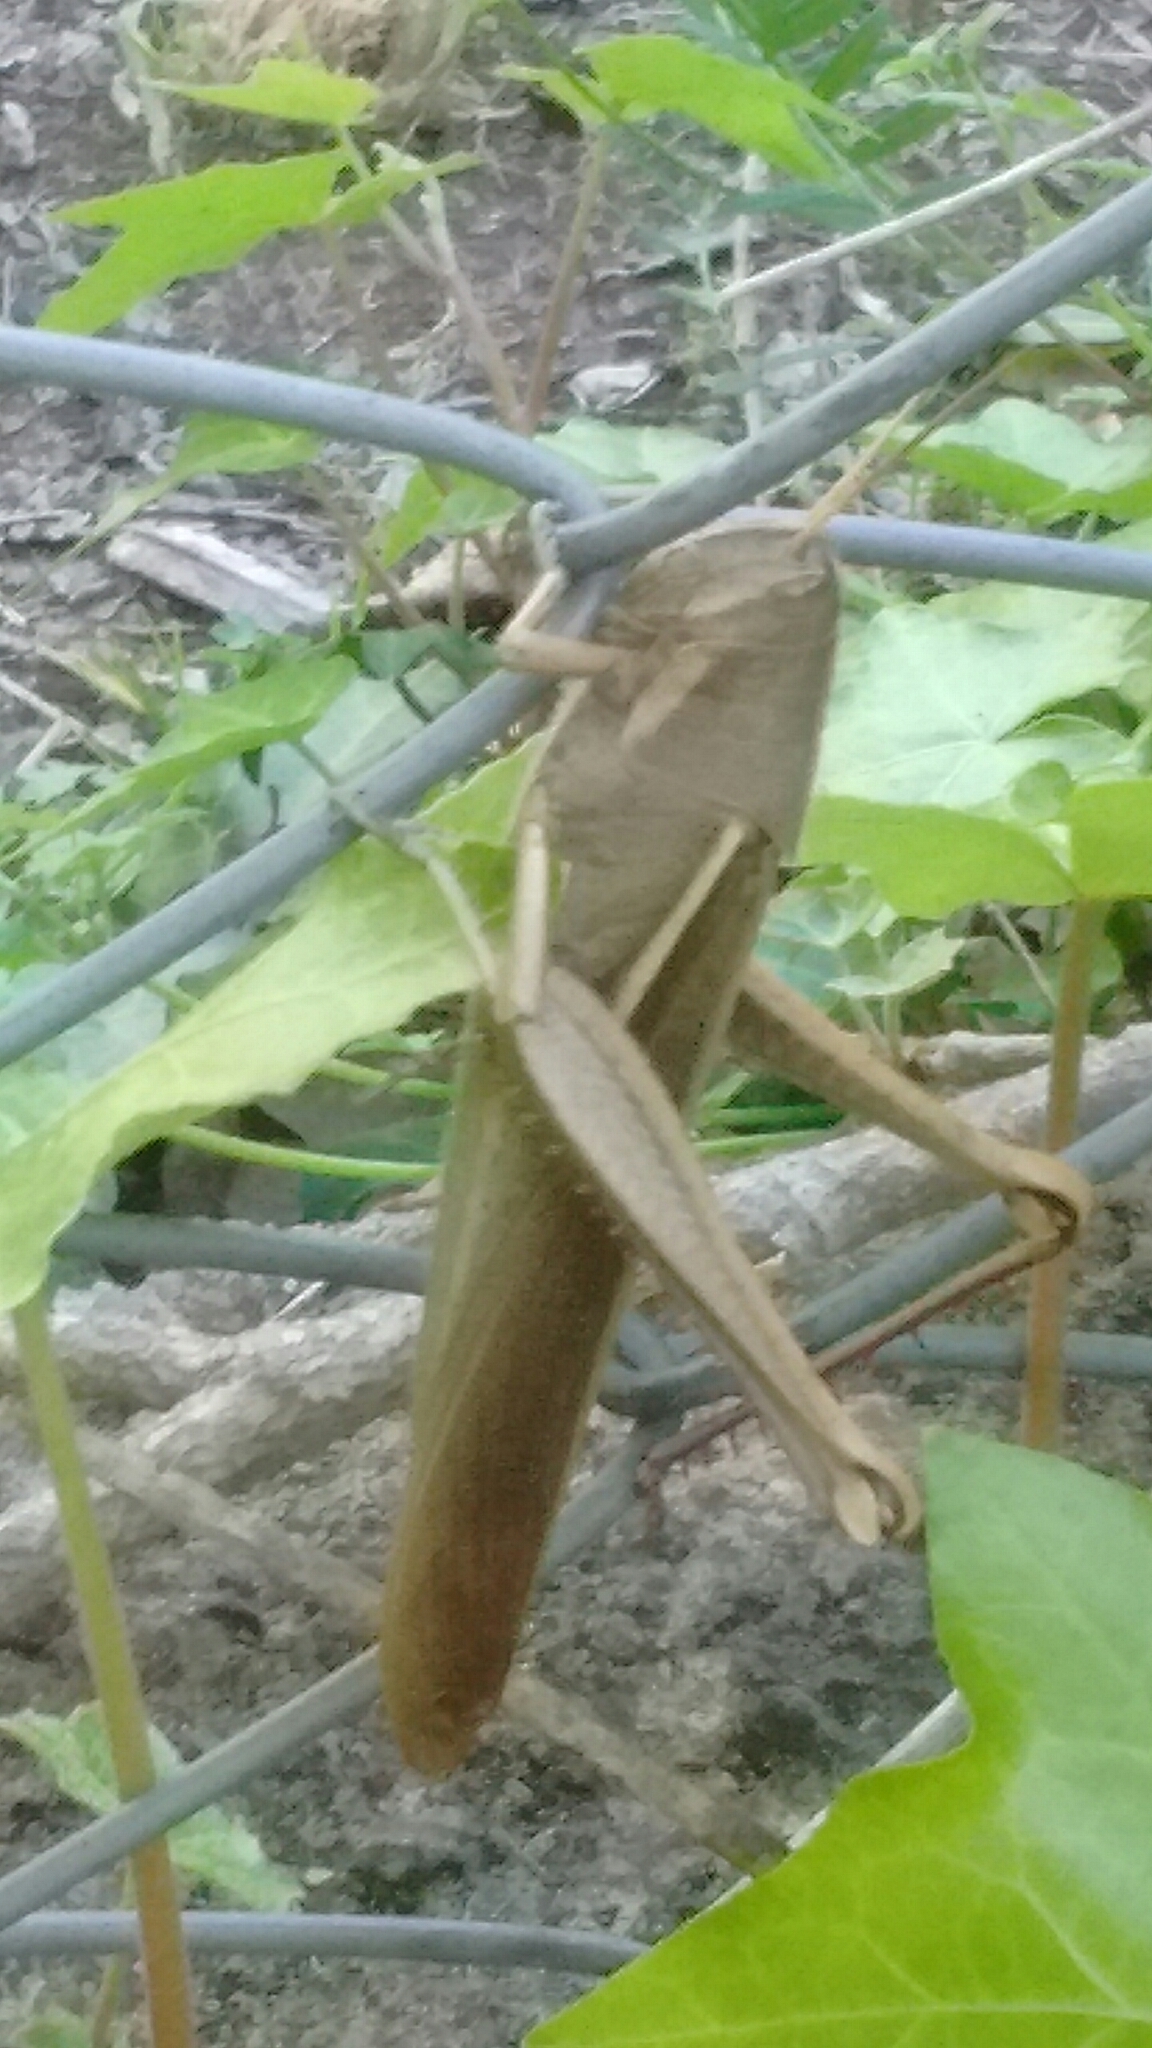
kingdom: Animalia
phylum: Arthropoda
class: Insecta
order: Orthoptera
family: Acrididae
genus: Schistocerca
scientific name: Schistocerca flavofasciata
